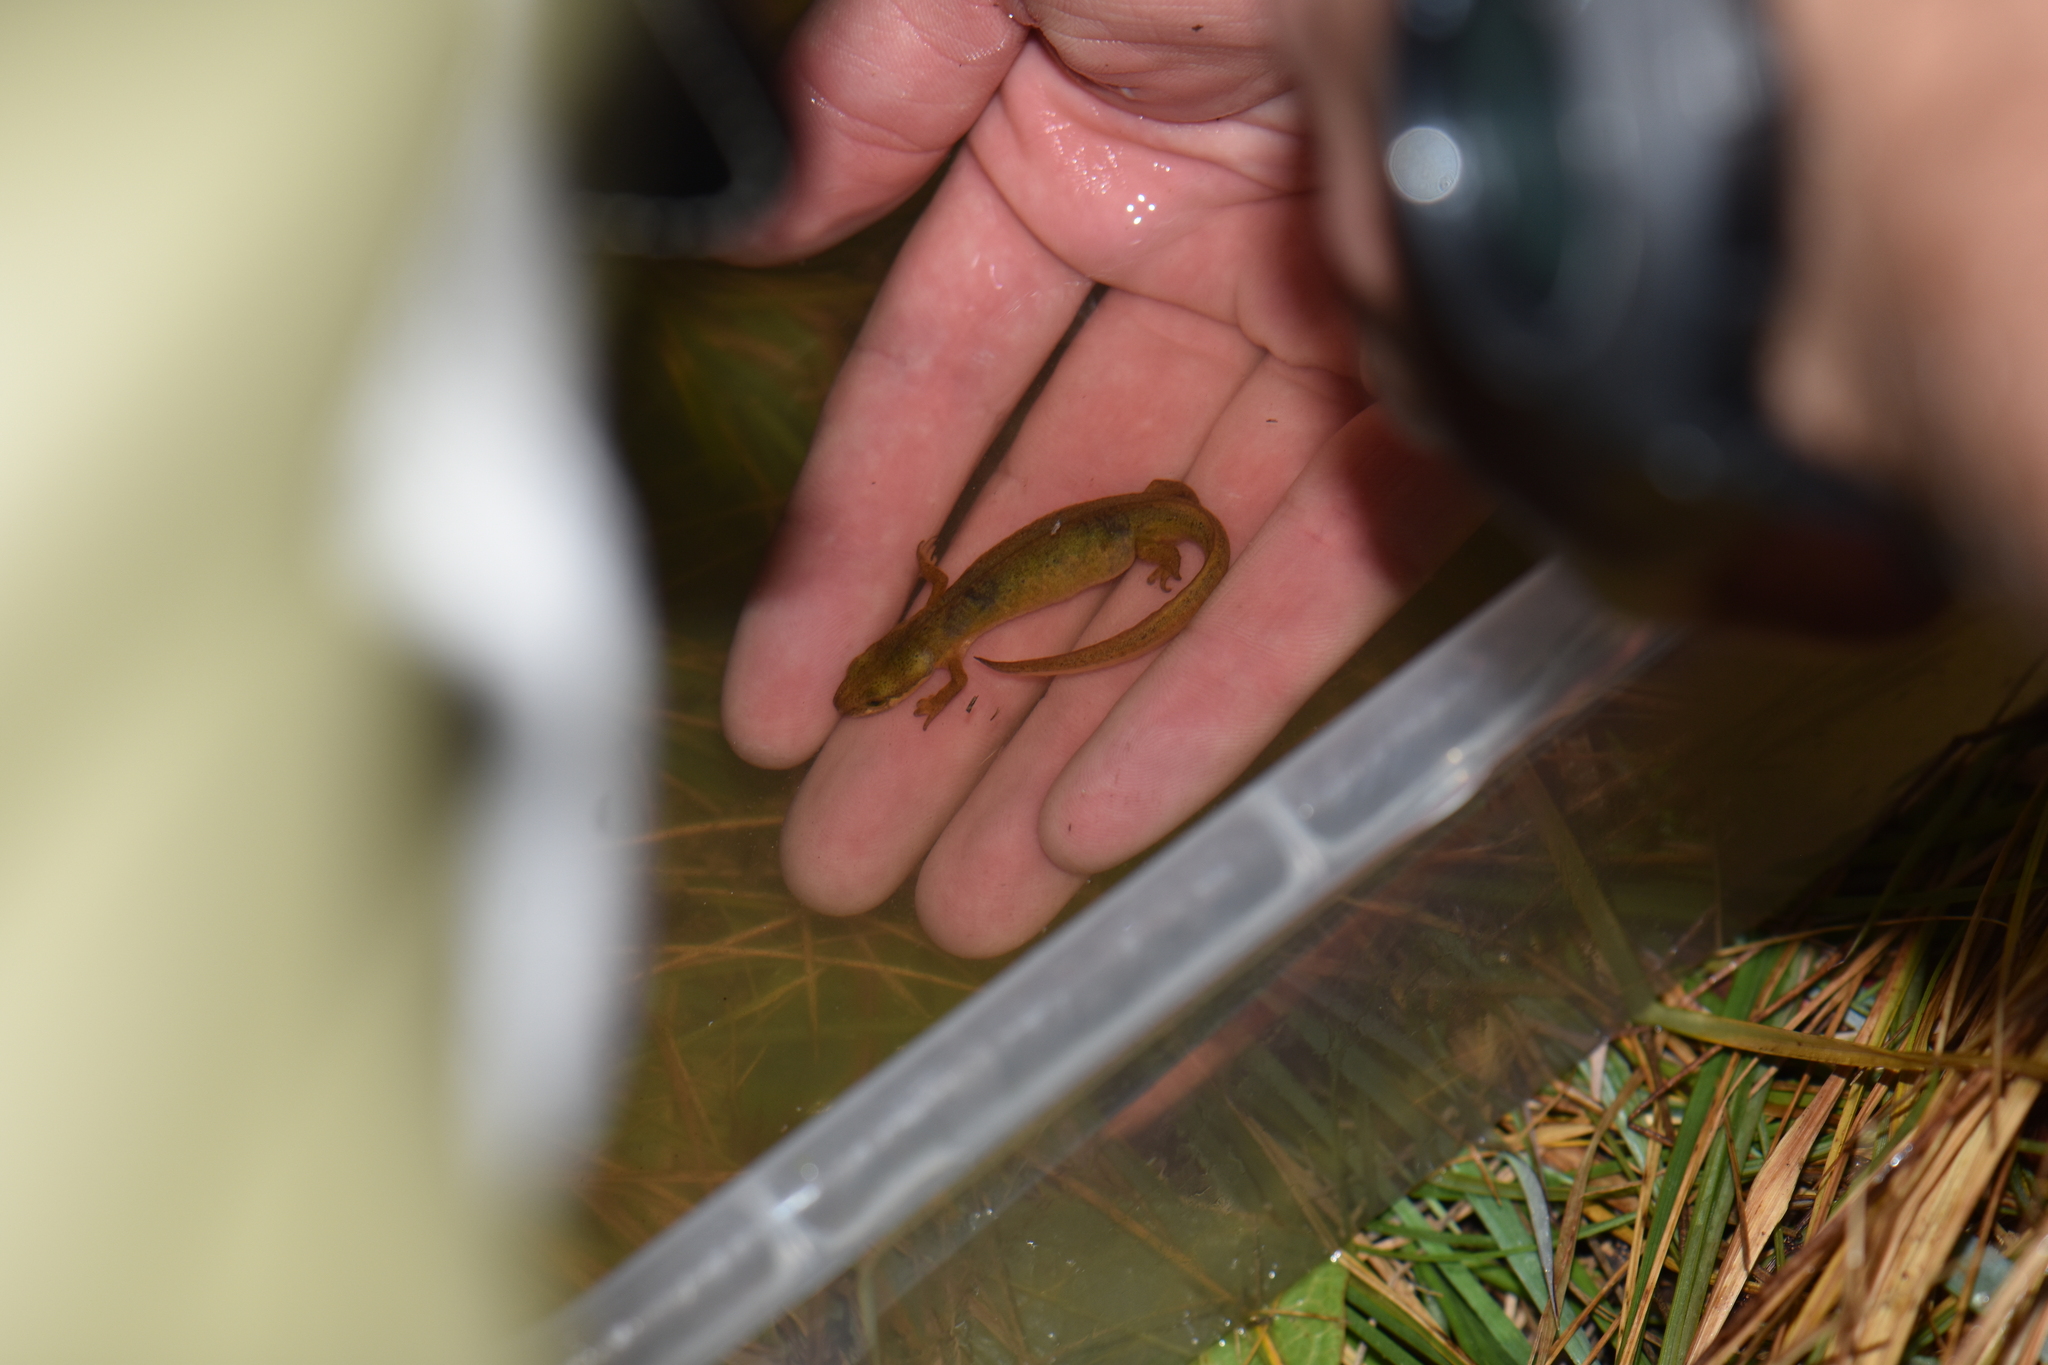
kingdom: Animalia
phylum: Chordata
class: Amphibia
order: Caudata
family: Salamandridae
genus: Lissotriton
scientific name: Lissotriton helveticus
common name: Palmate newt
